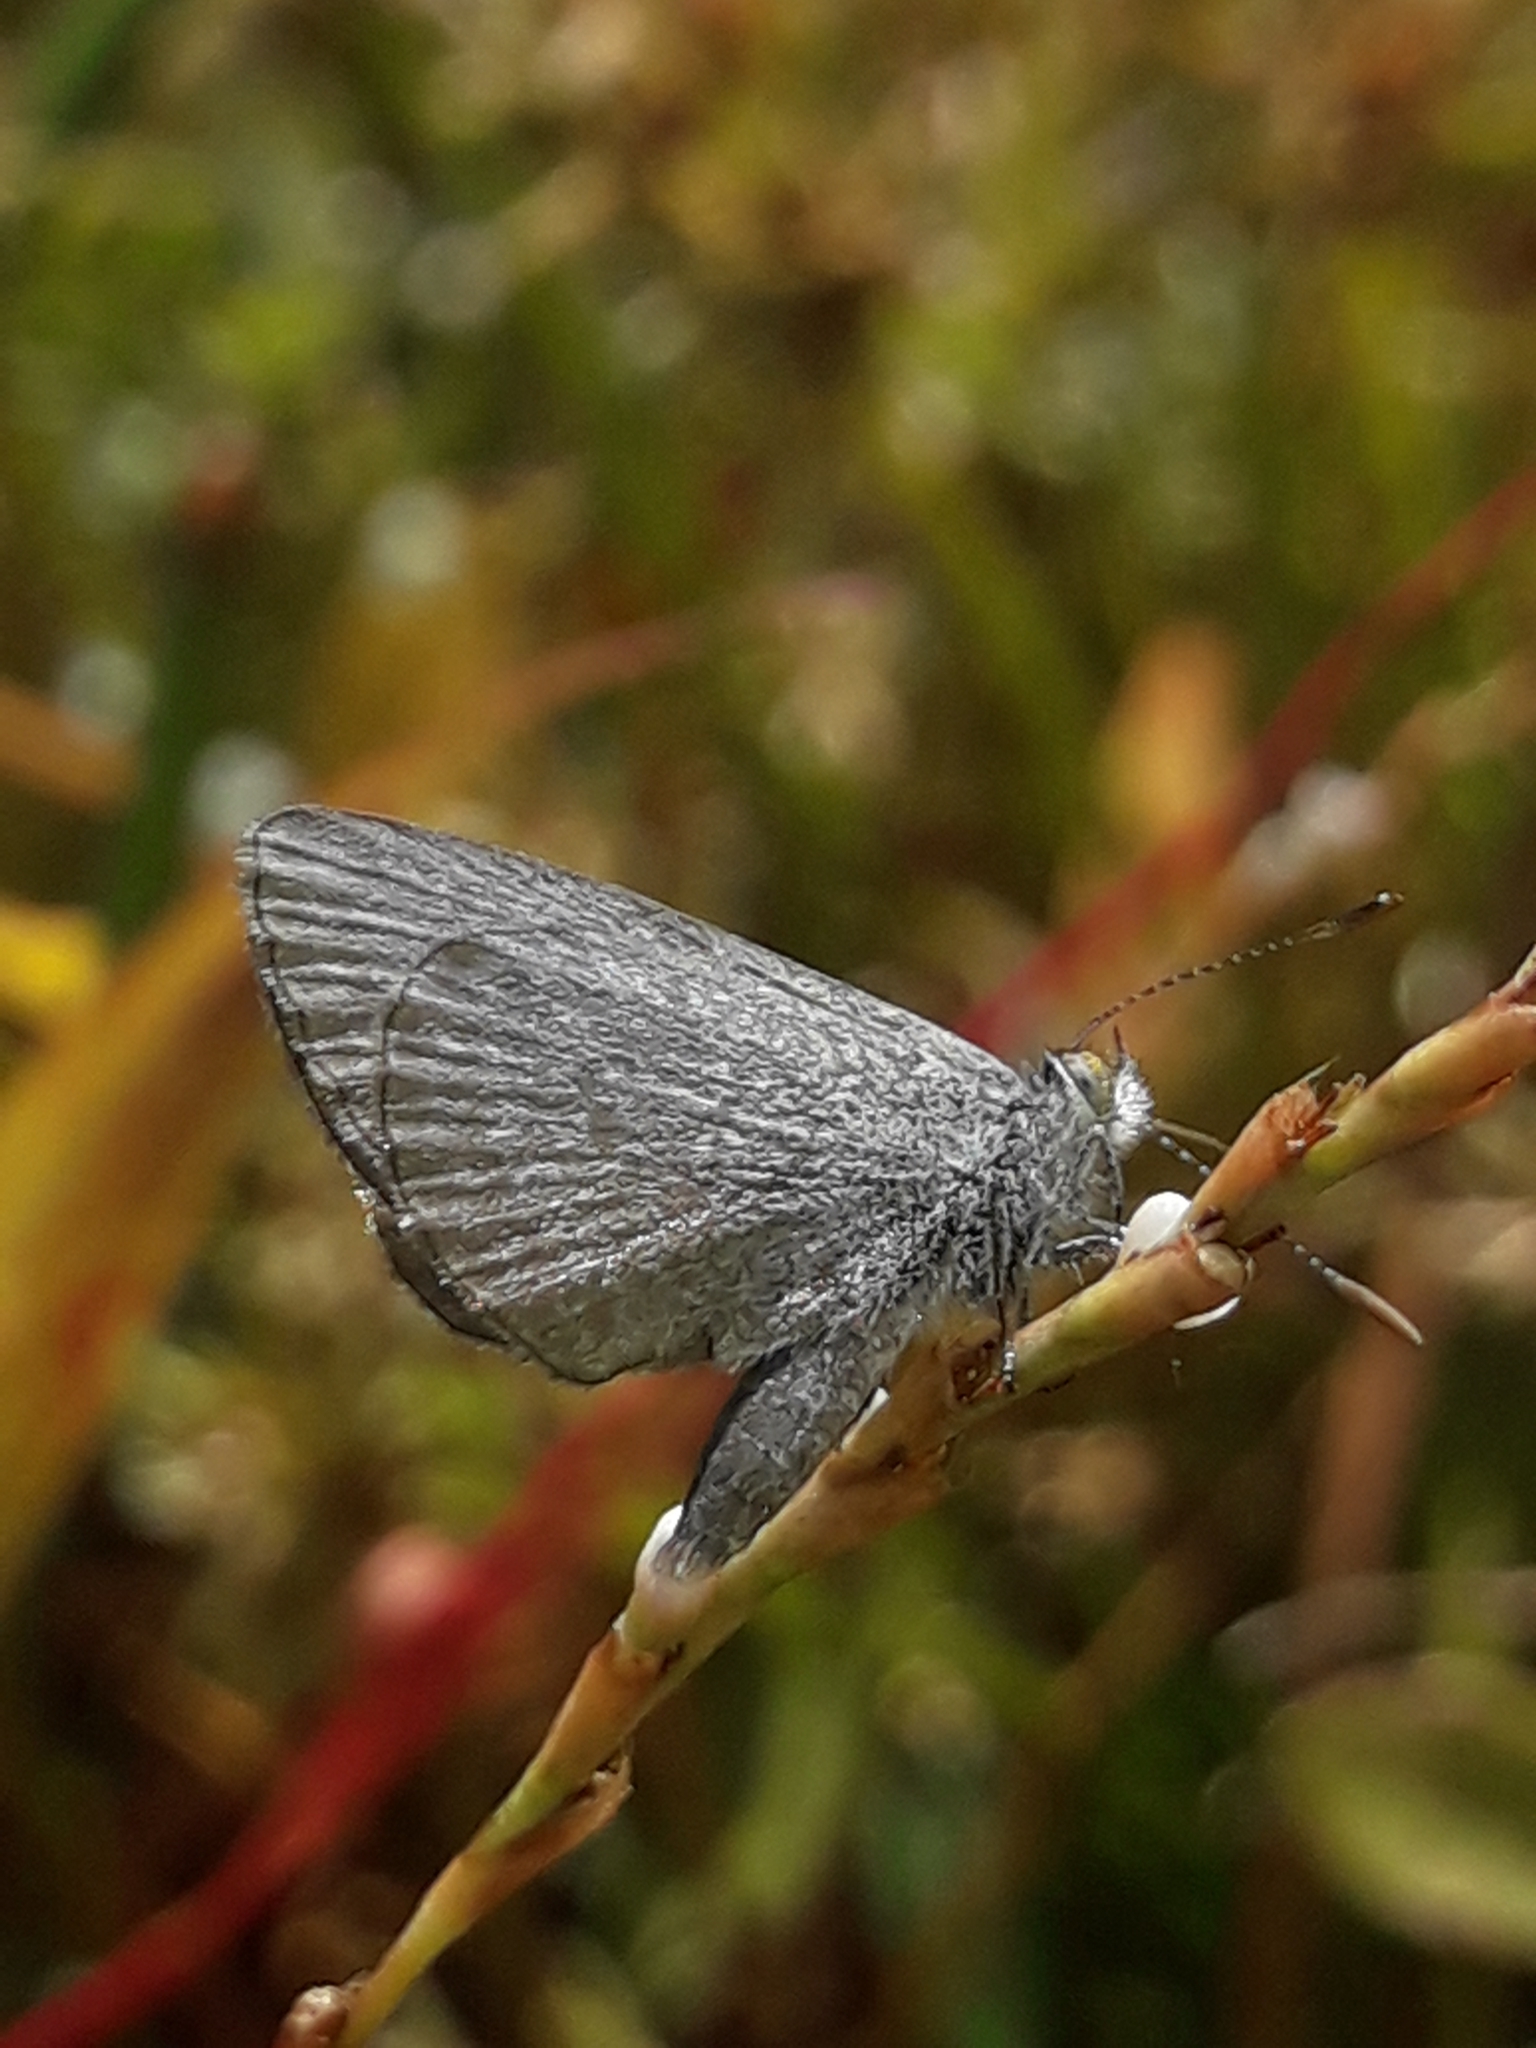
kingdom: Animalia
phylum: Arthropoda
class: Insecta
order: Lepidoptera
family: Lycaenidae
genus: Zizina
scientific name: Zizina labradus
